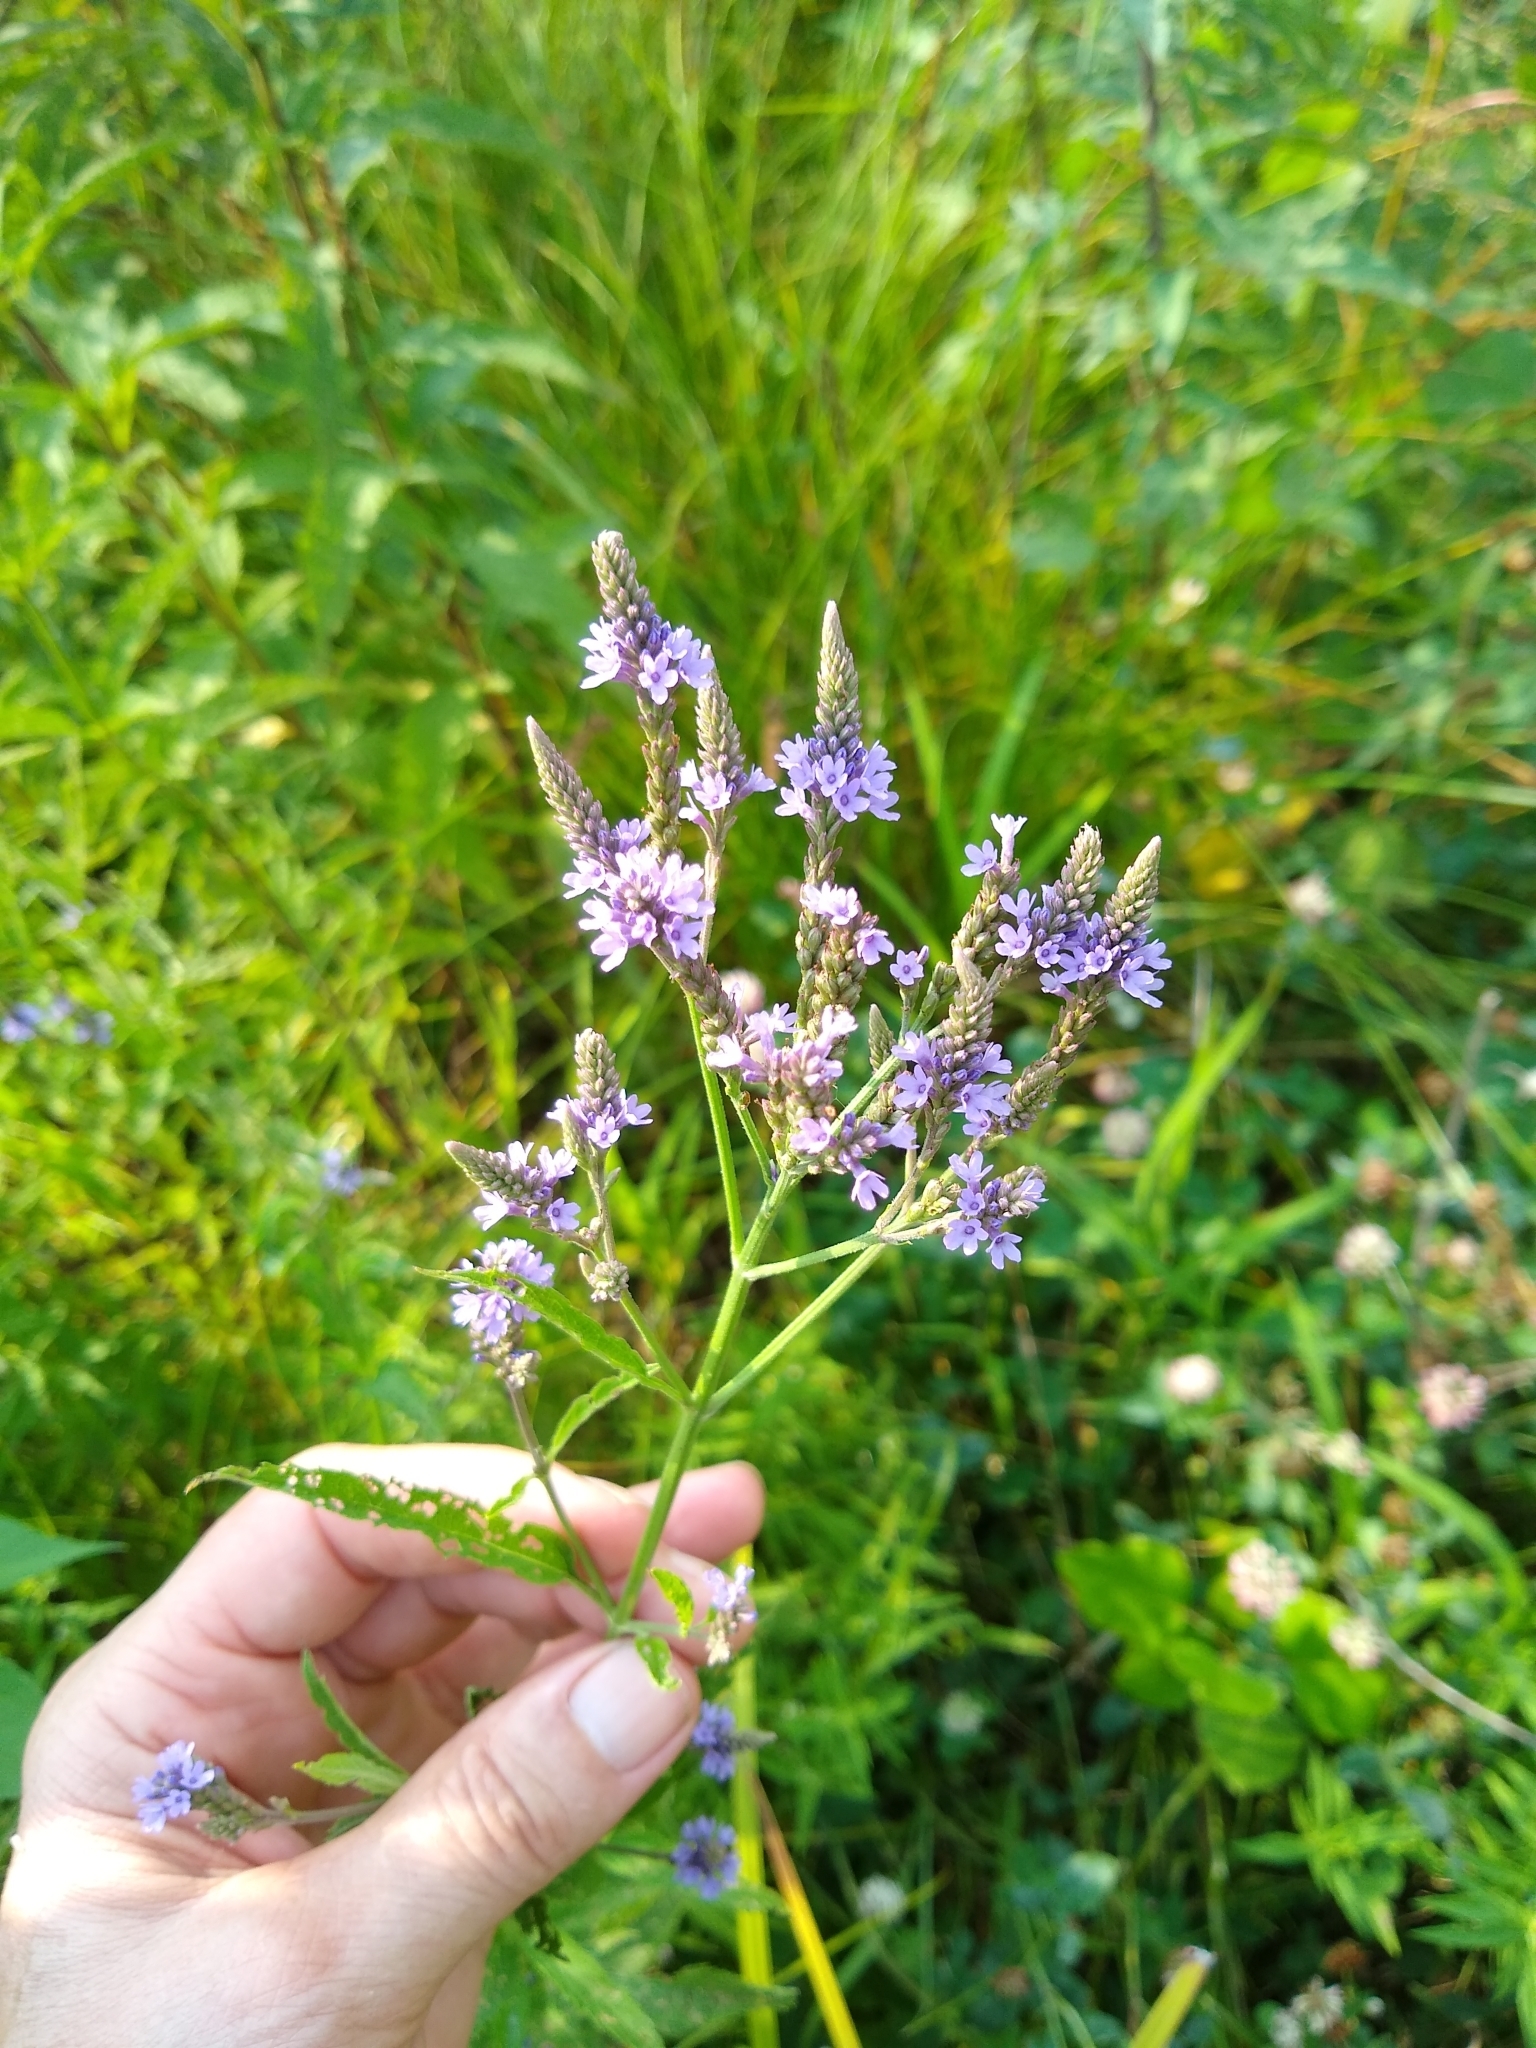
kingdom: Plantae
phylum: Tracheophyta
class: Magnoliopsida
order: Lamiales
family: Verbenaceae
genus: Verbena
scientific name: Verbena hastata
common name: American blue vervain
